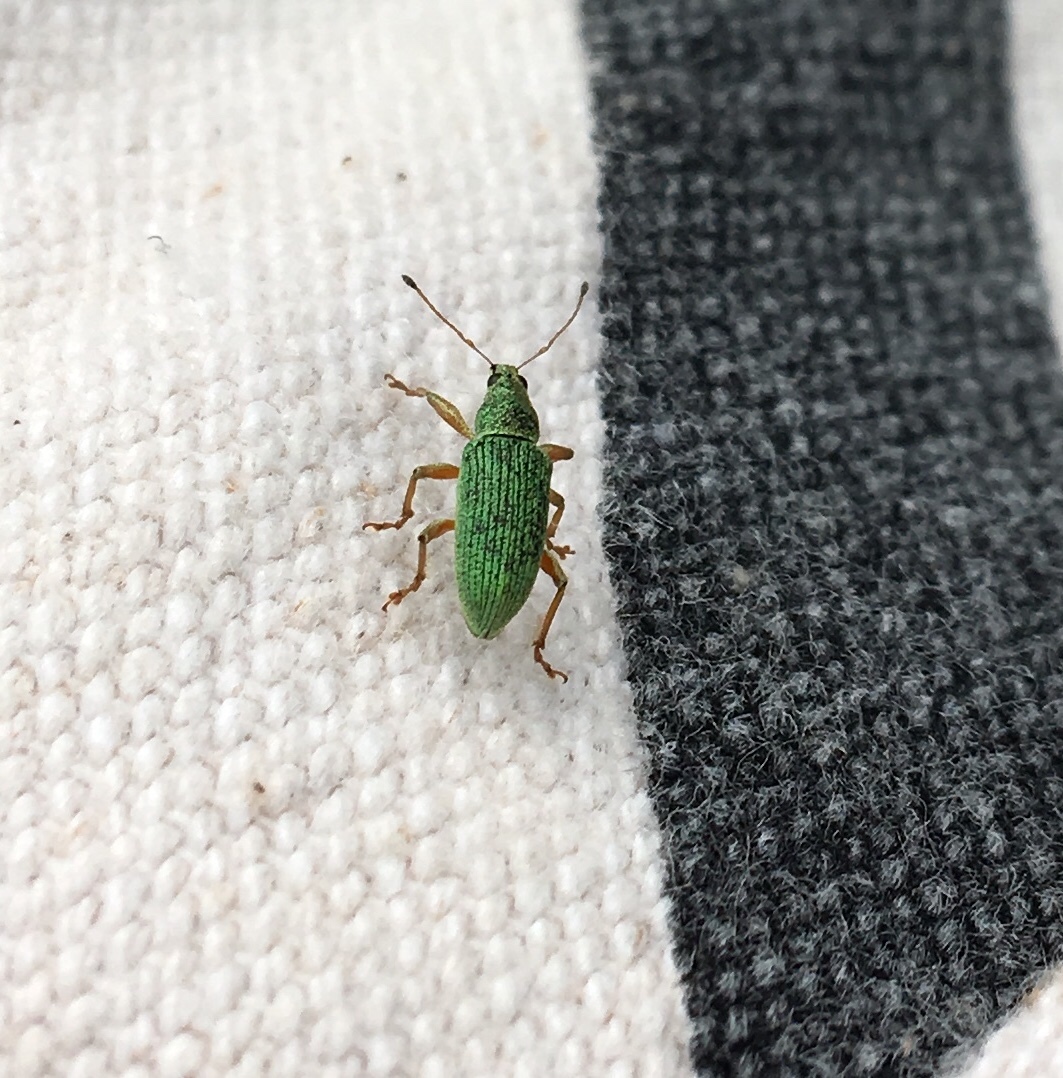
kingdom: Animalia
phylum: Arthropoda
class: Insecta
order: Coleoptera
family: Curculionidae
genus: Polydrusus
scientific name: Polydrusus formosus
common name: Weevil
